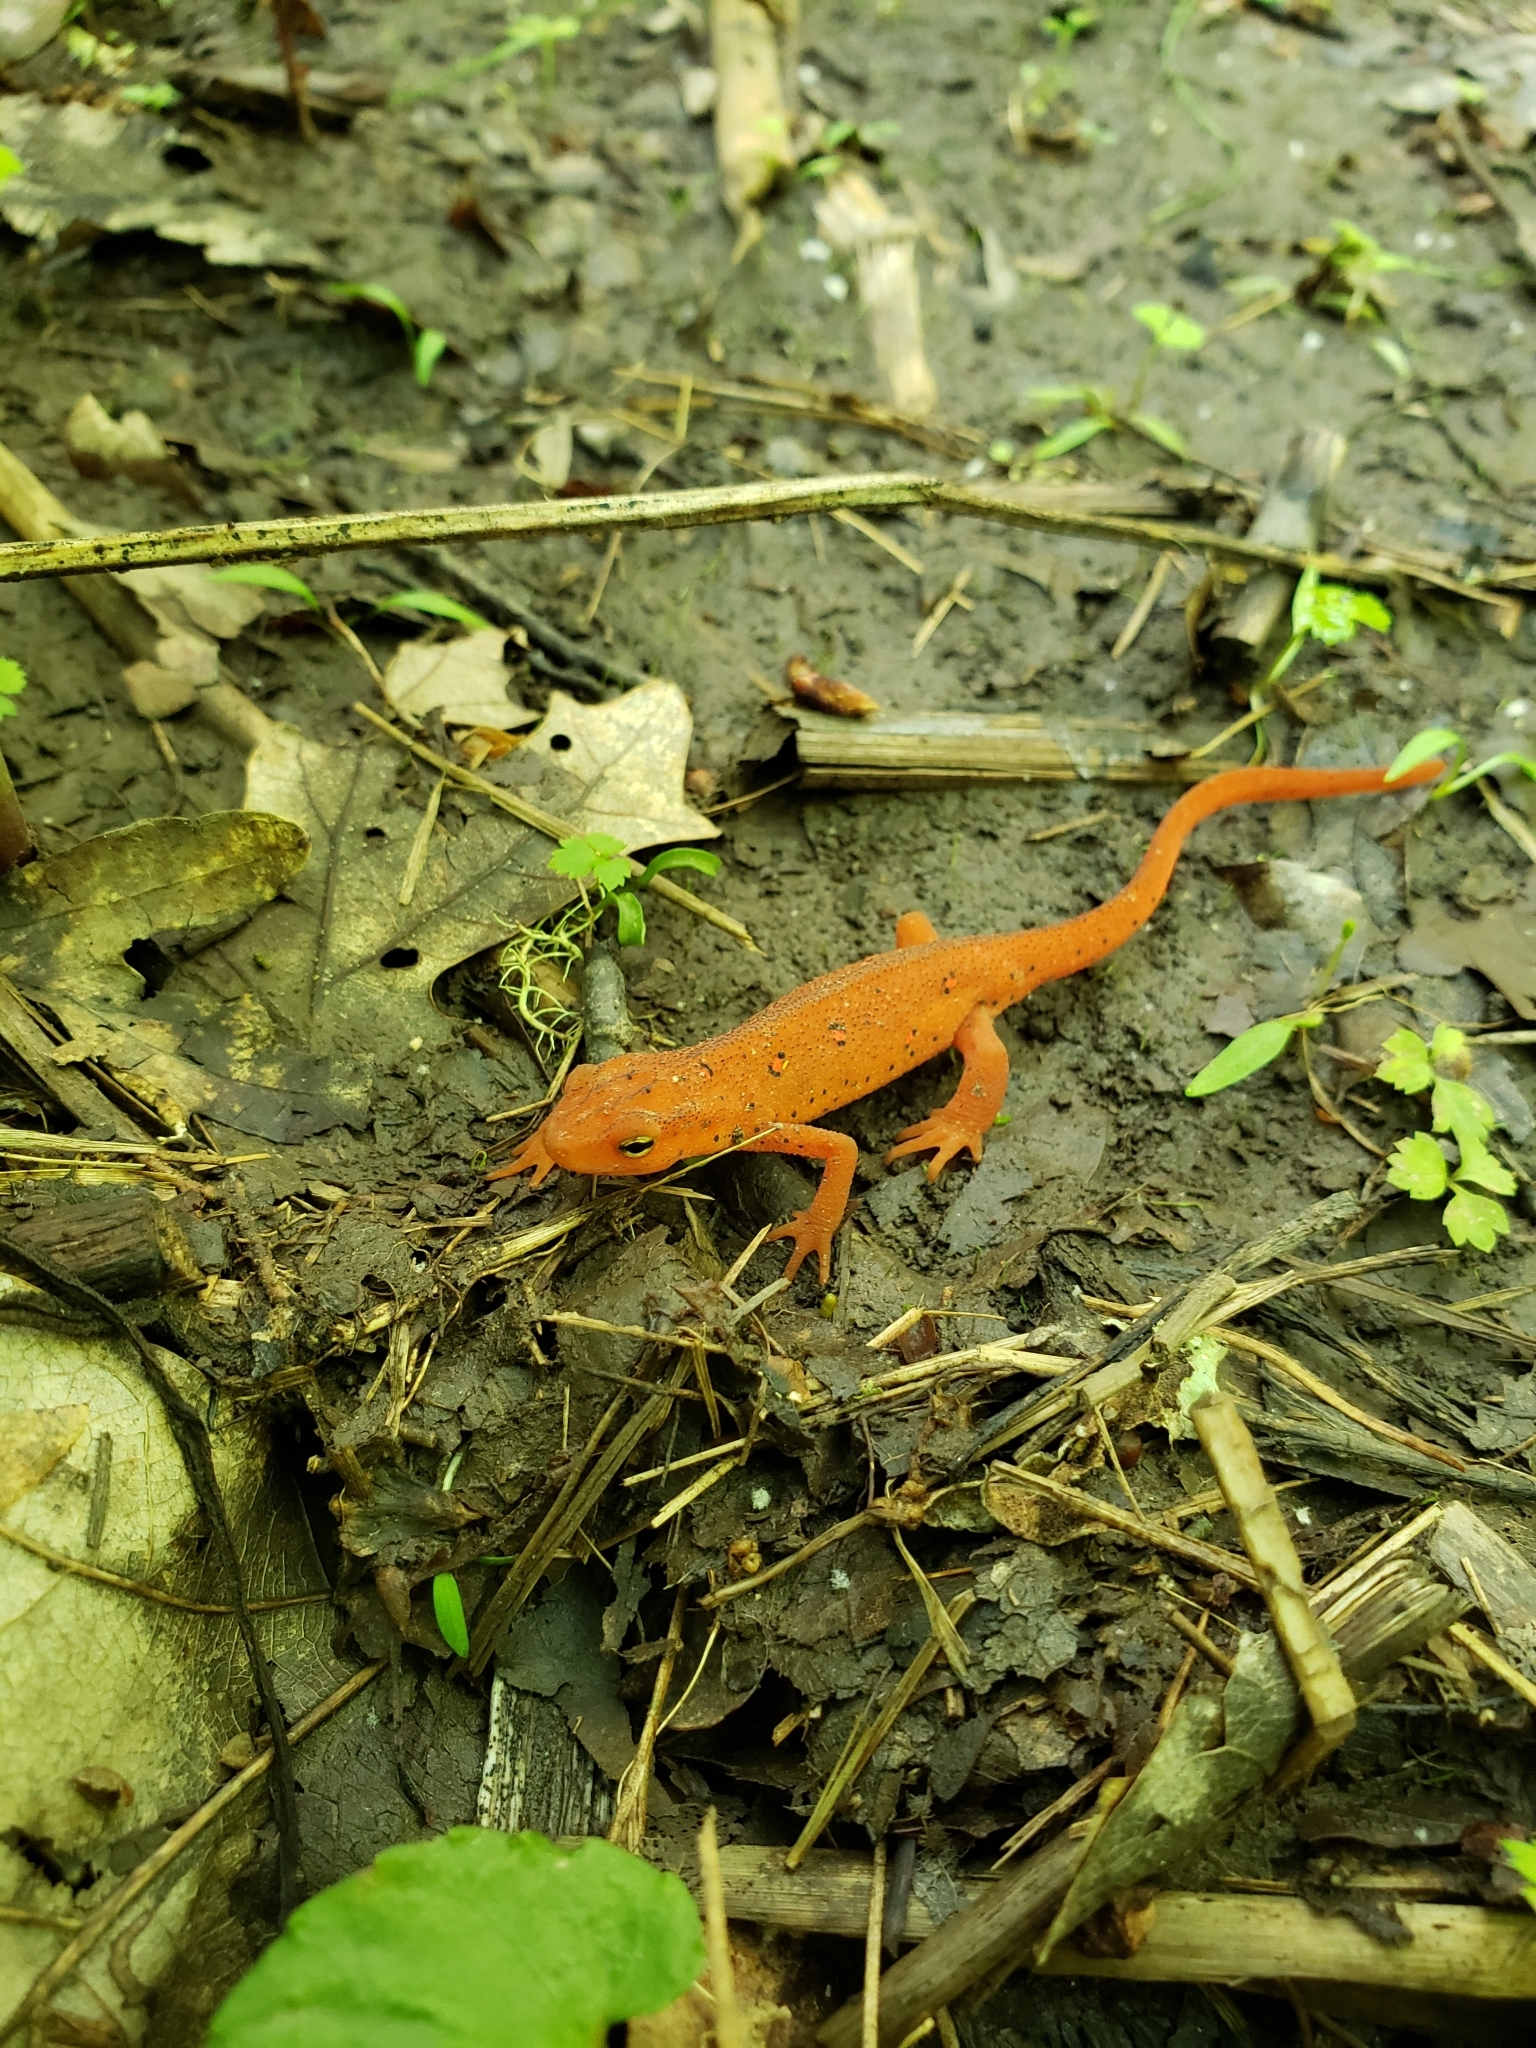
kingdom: Animalia
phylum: Chordata
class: Amphibia
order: Caudata
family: Salamandridae
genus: Notophthalmus
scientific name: Notophthalmus viridescens
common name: Eastern newt
